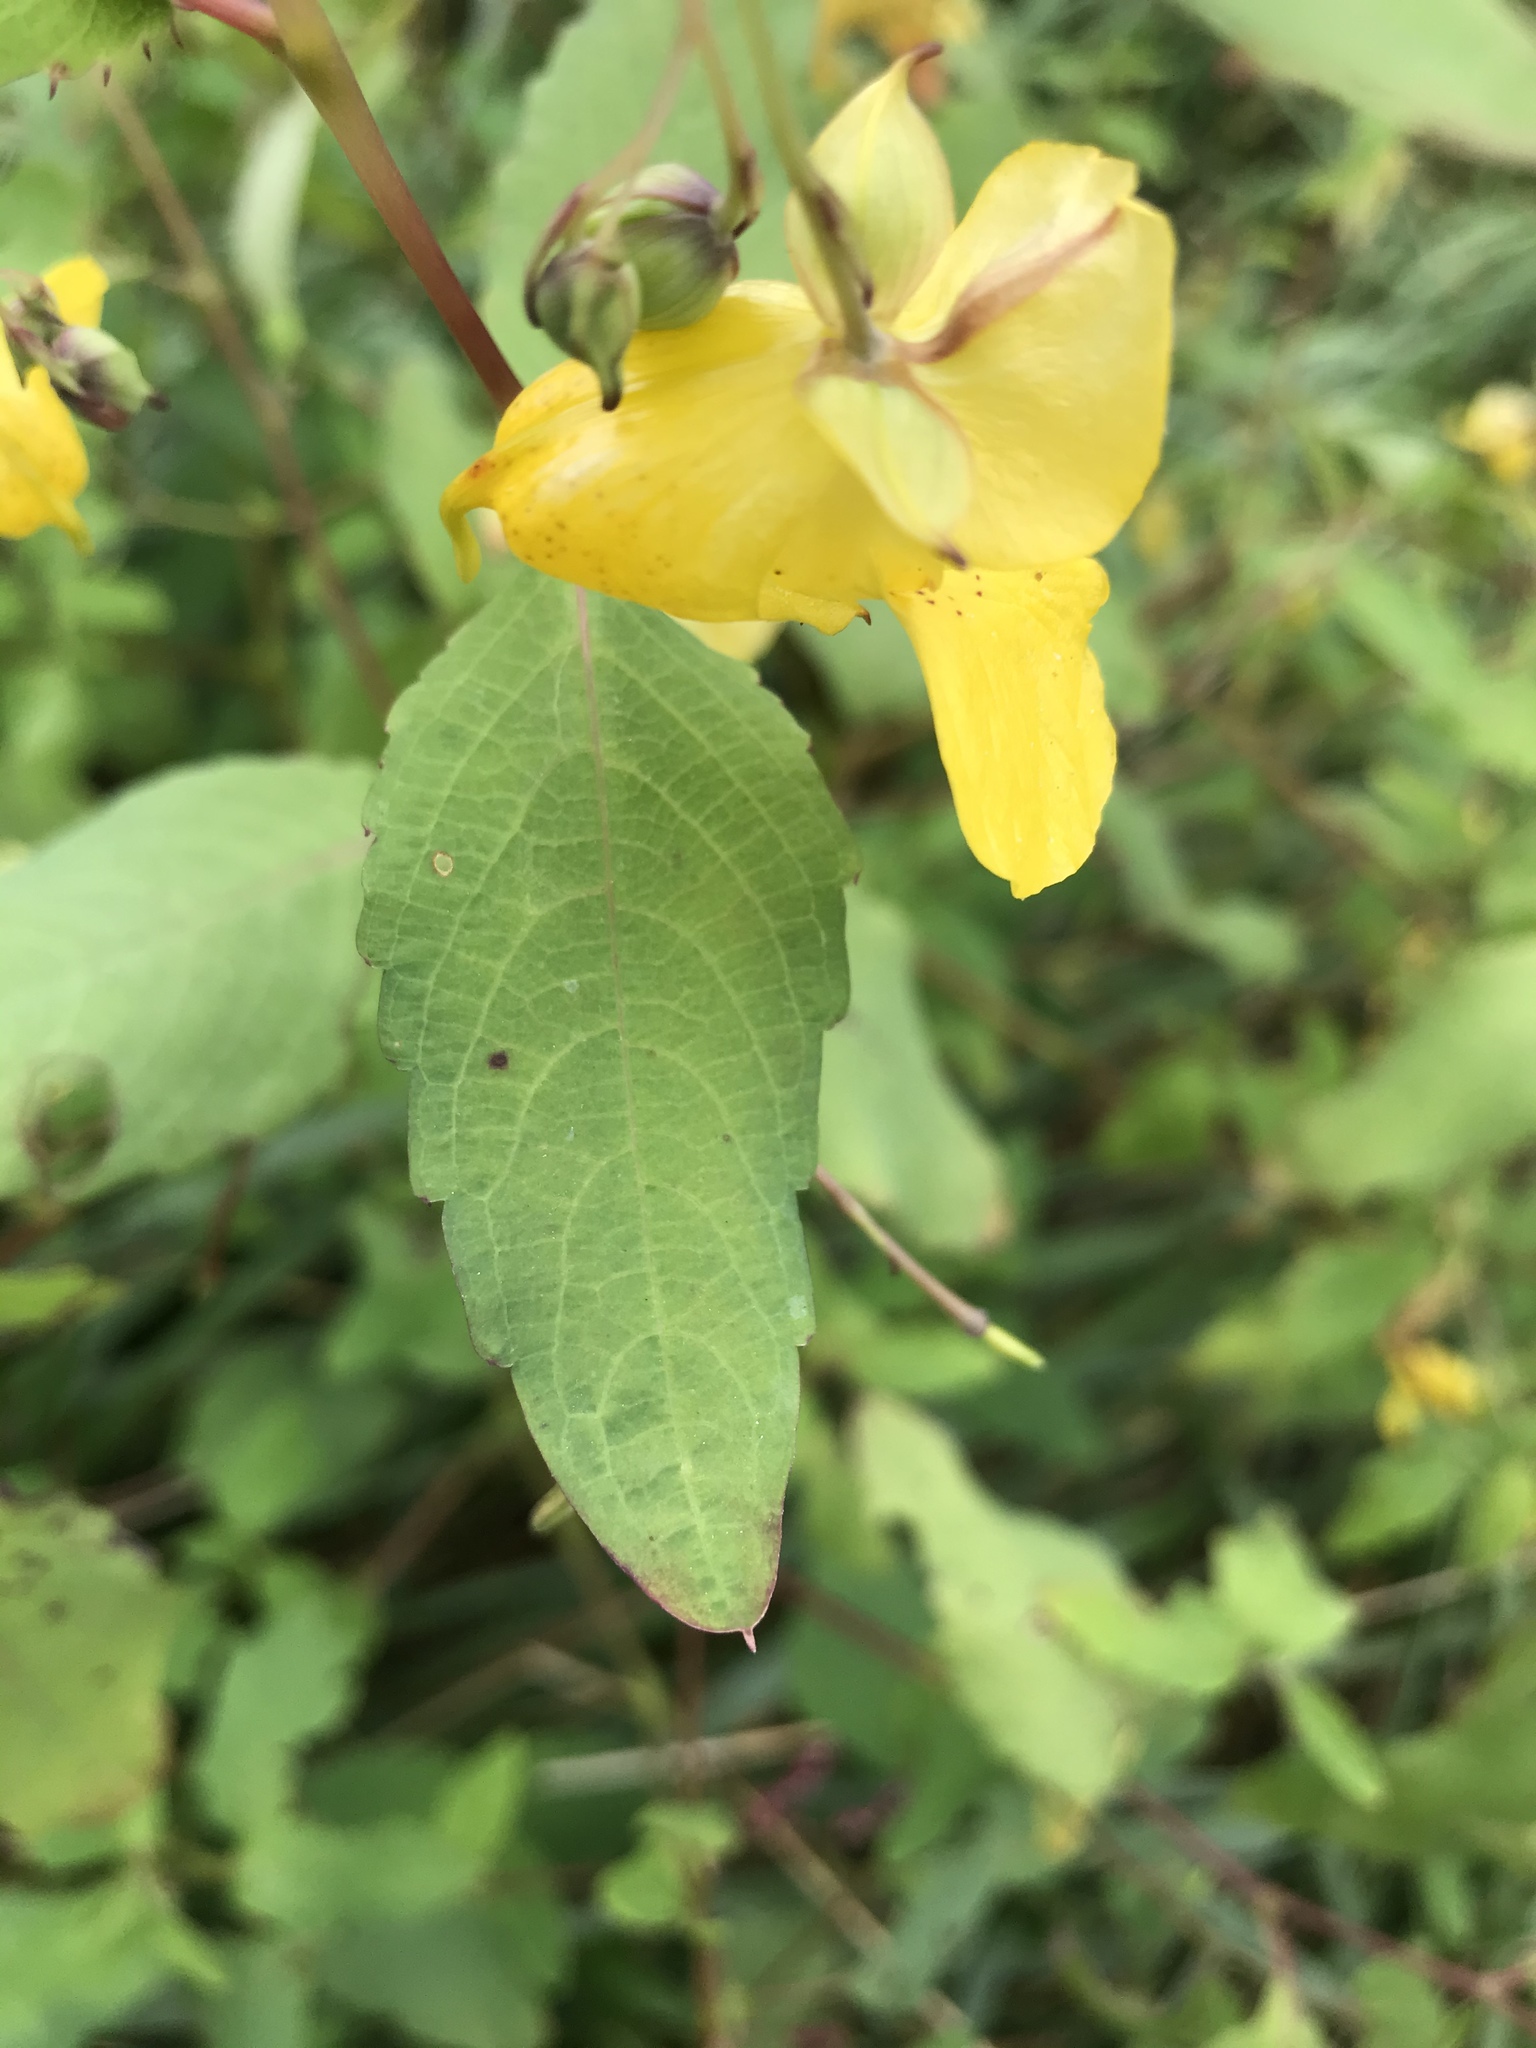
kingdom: Plantae
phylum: Tracheophyta
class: Magnoliopsida
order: Ericales
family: Balsaminaceae
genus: Impatiens
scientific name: Impatiens pallida
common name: Pale snapweed
